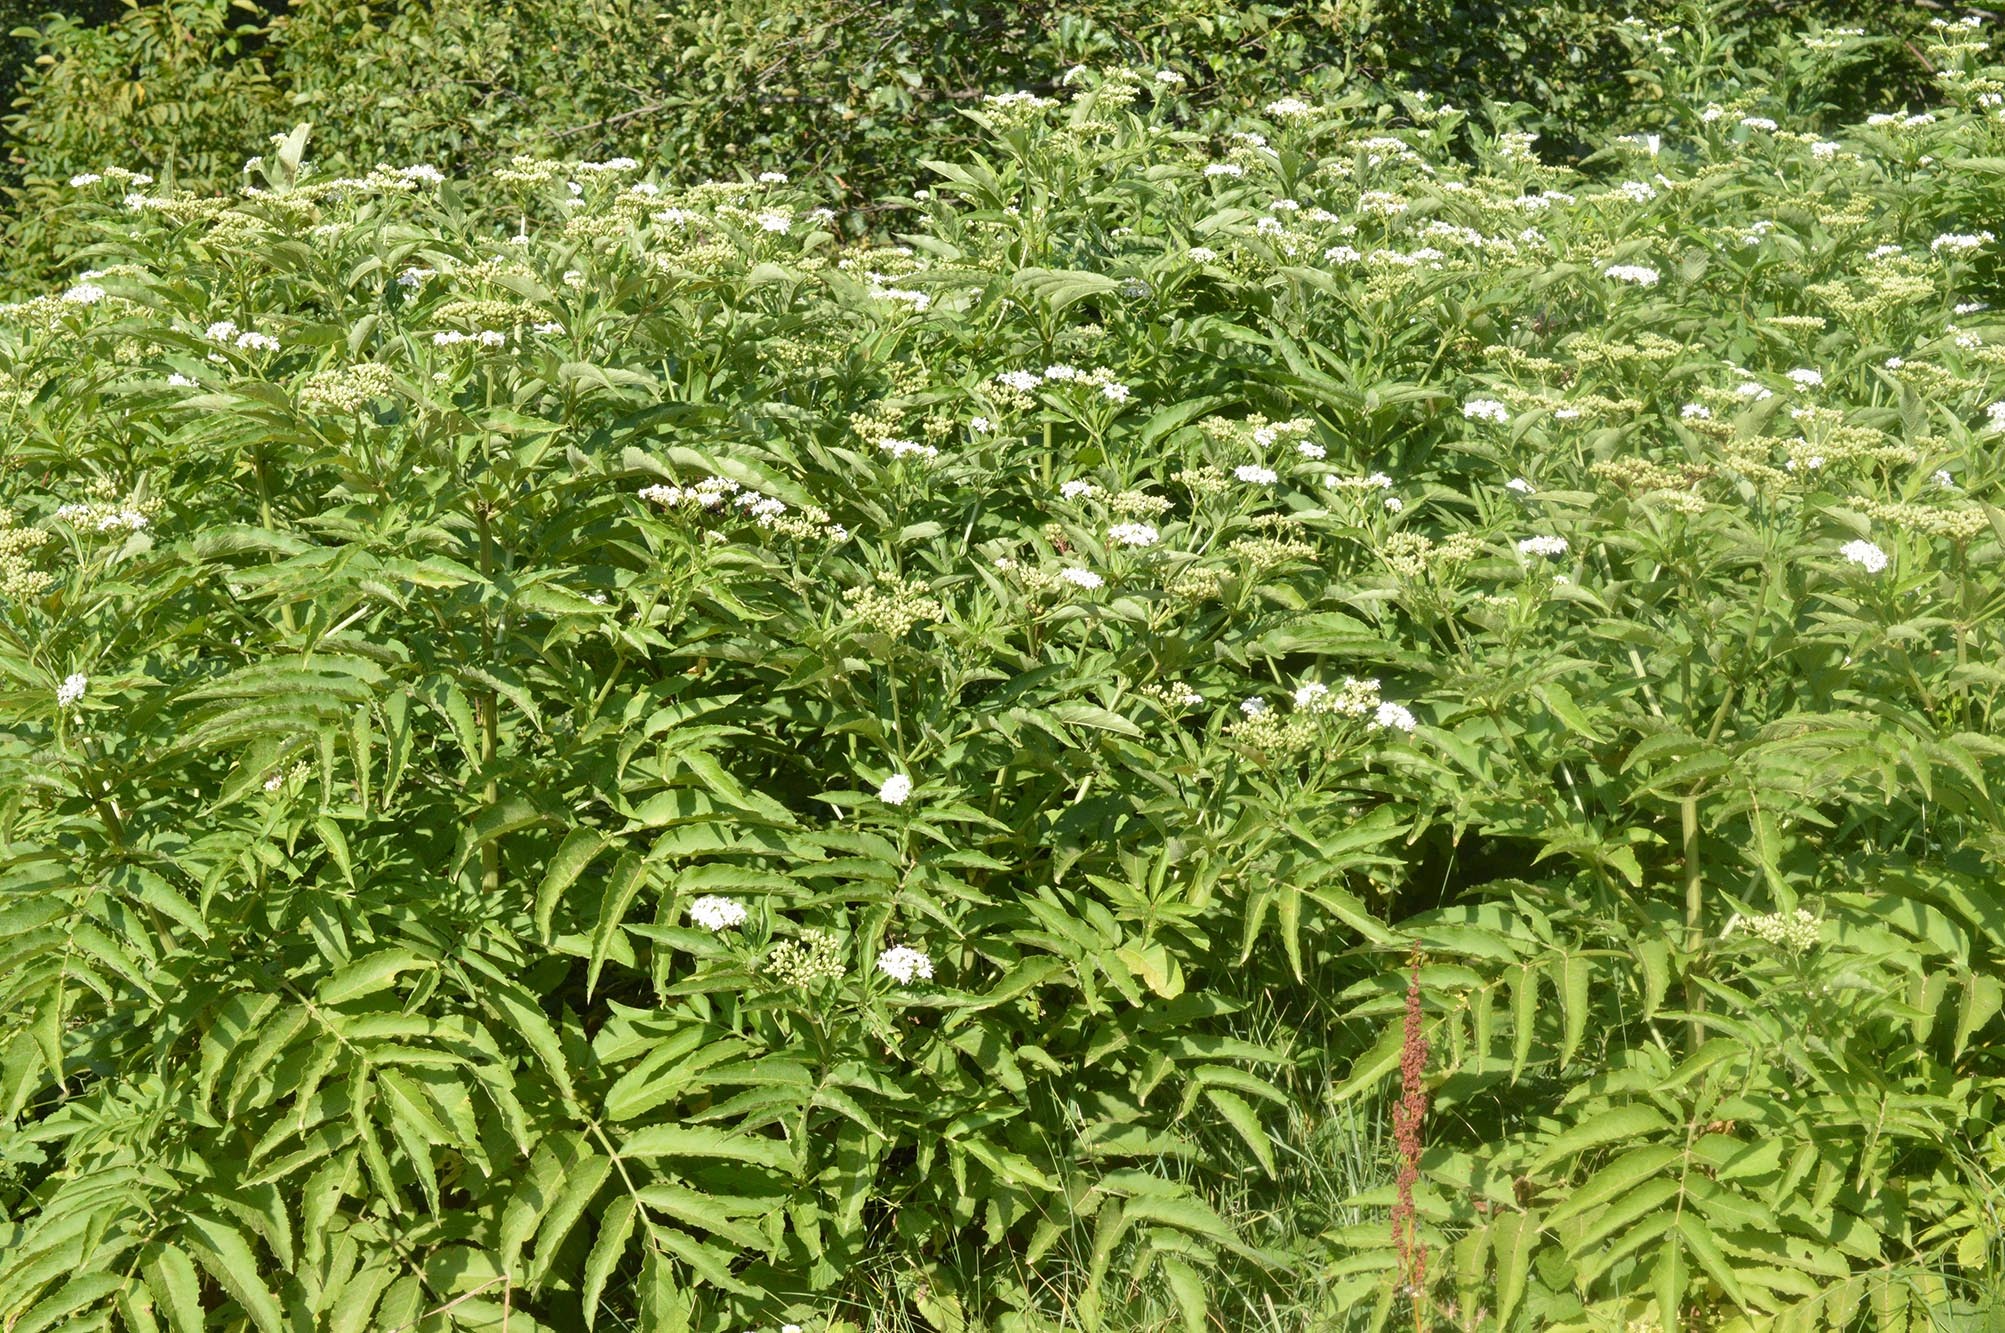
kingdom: Plantae
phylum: Tracheophyta
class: Magnoliopsida
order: Dipsacales
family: Viburnaceae
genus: Sambucus
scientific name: Sambucus ebulus
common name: Dwarf elder
